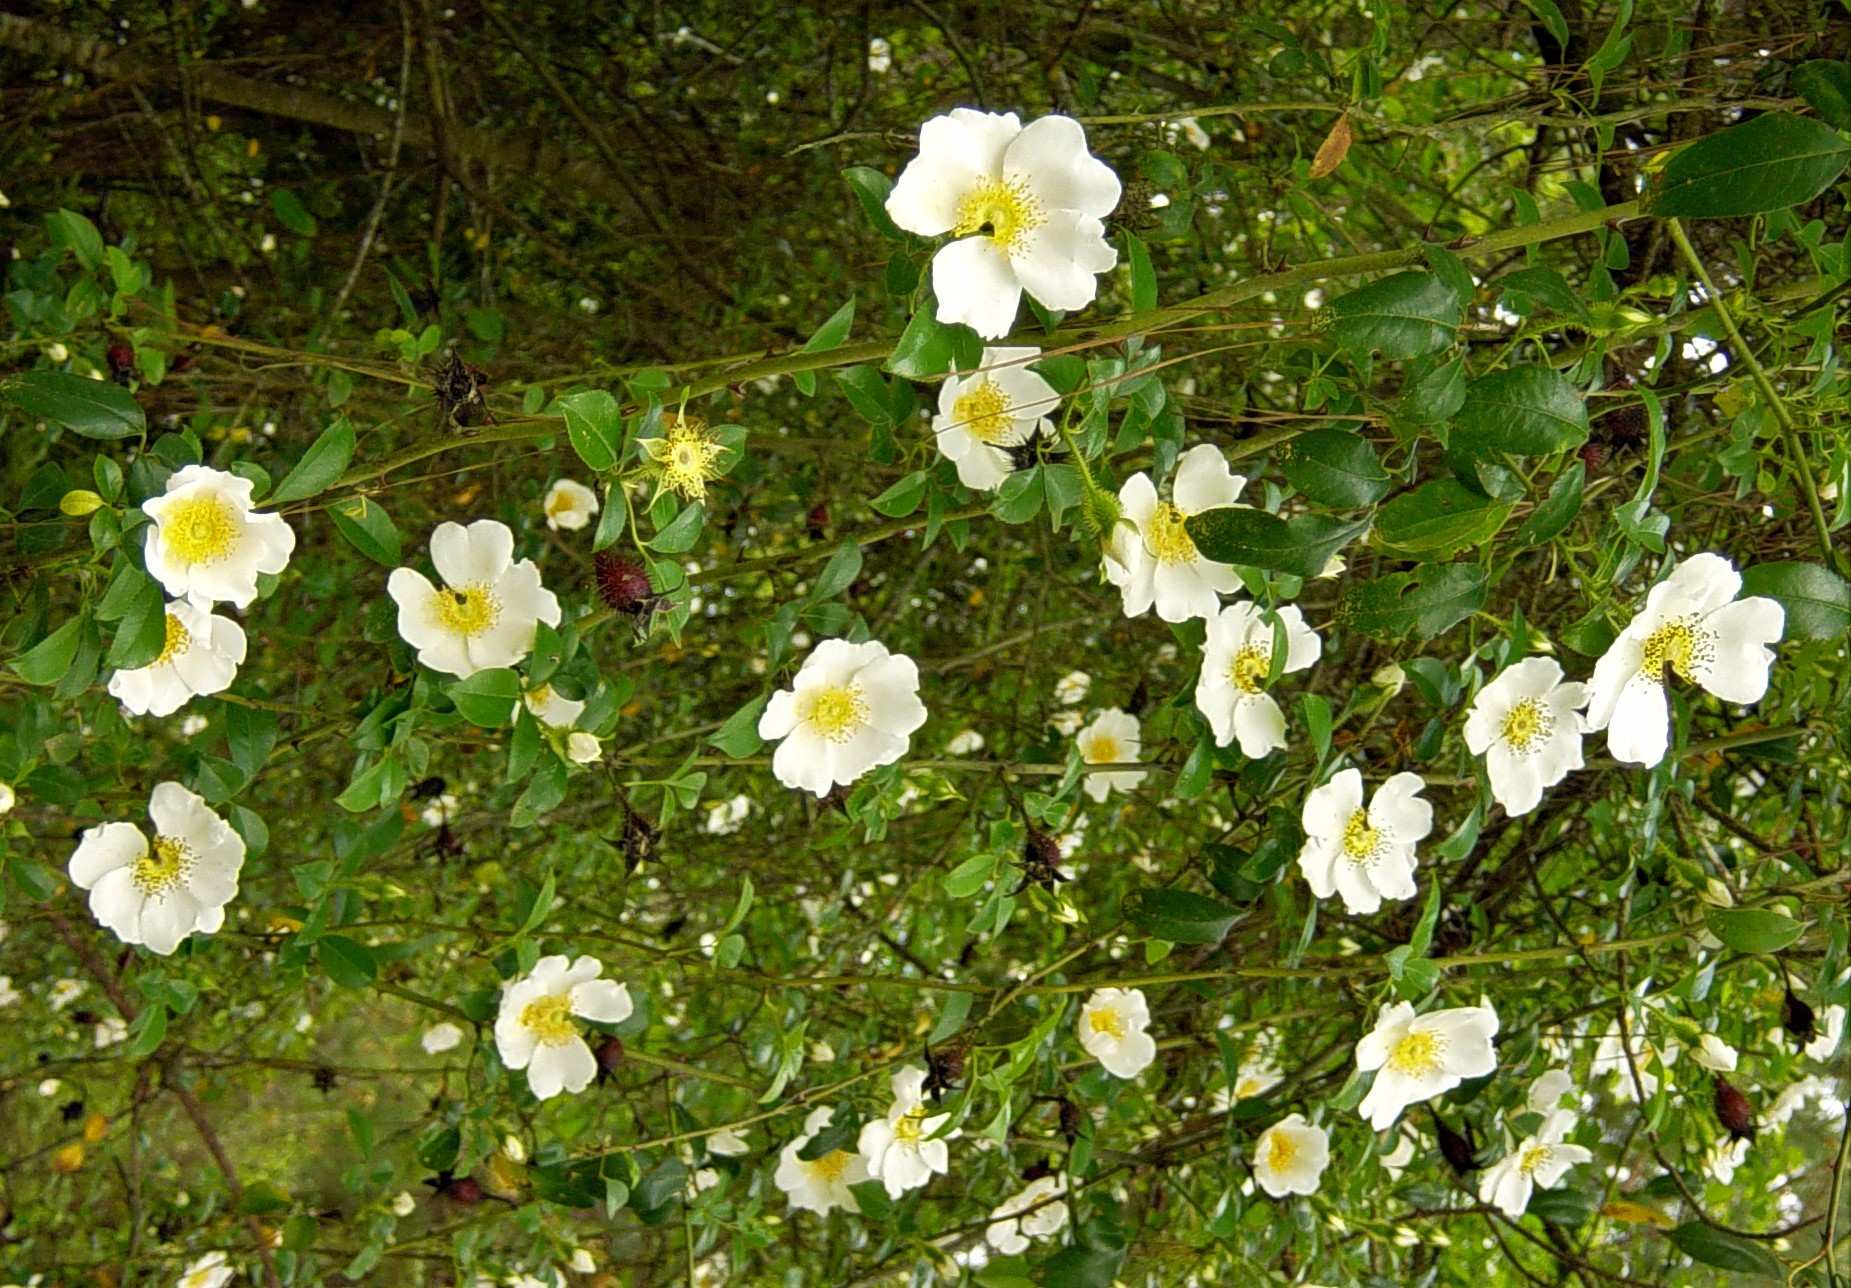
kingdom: Plantae
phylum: Tracheophyta
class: Magnoliopsida
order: Rosales
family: Rosaceae
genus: Rosa
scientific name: Rosa laevigata
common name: Cherokee rose
